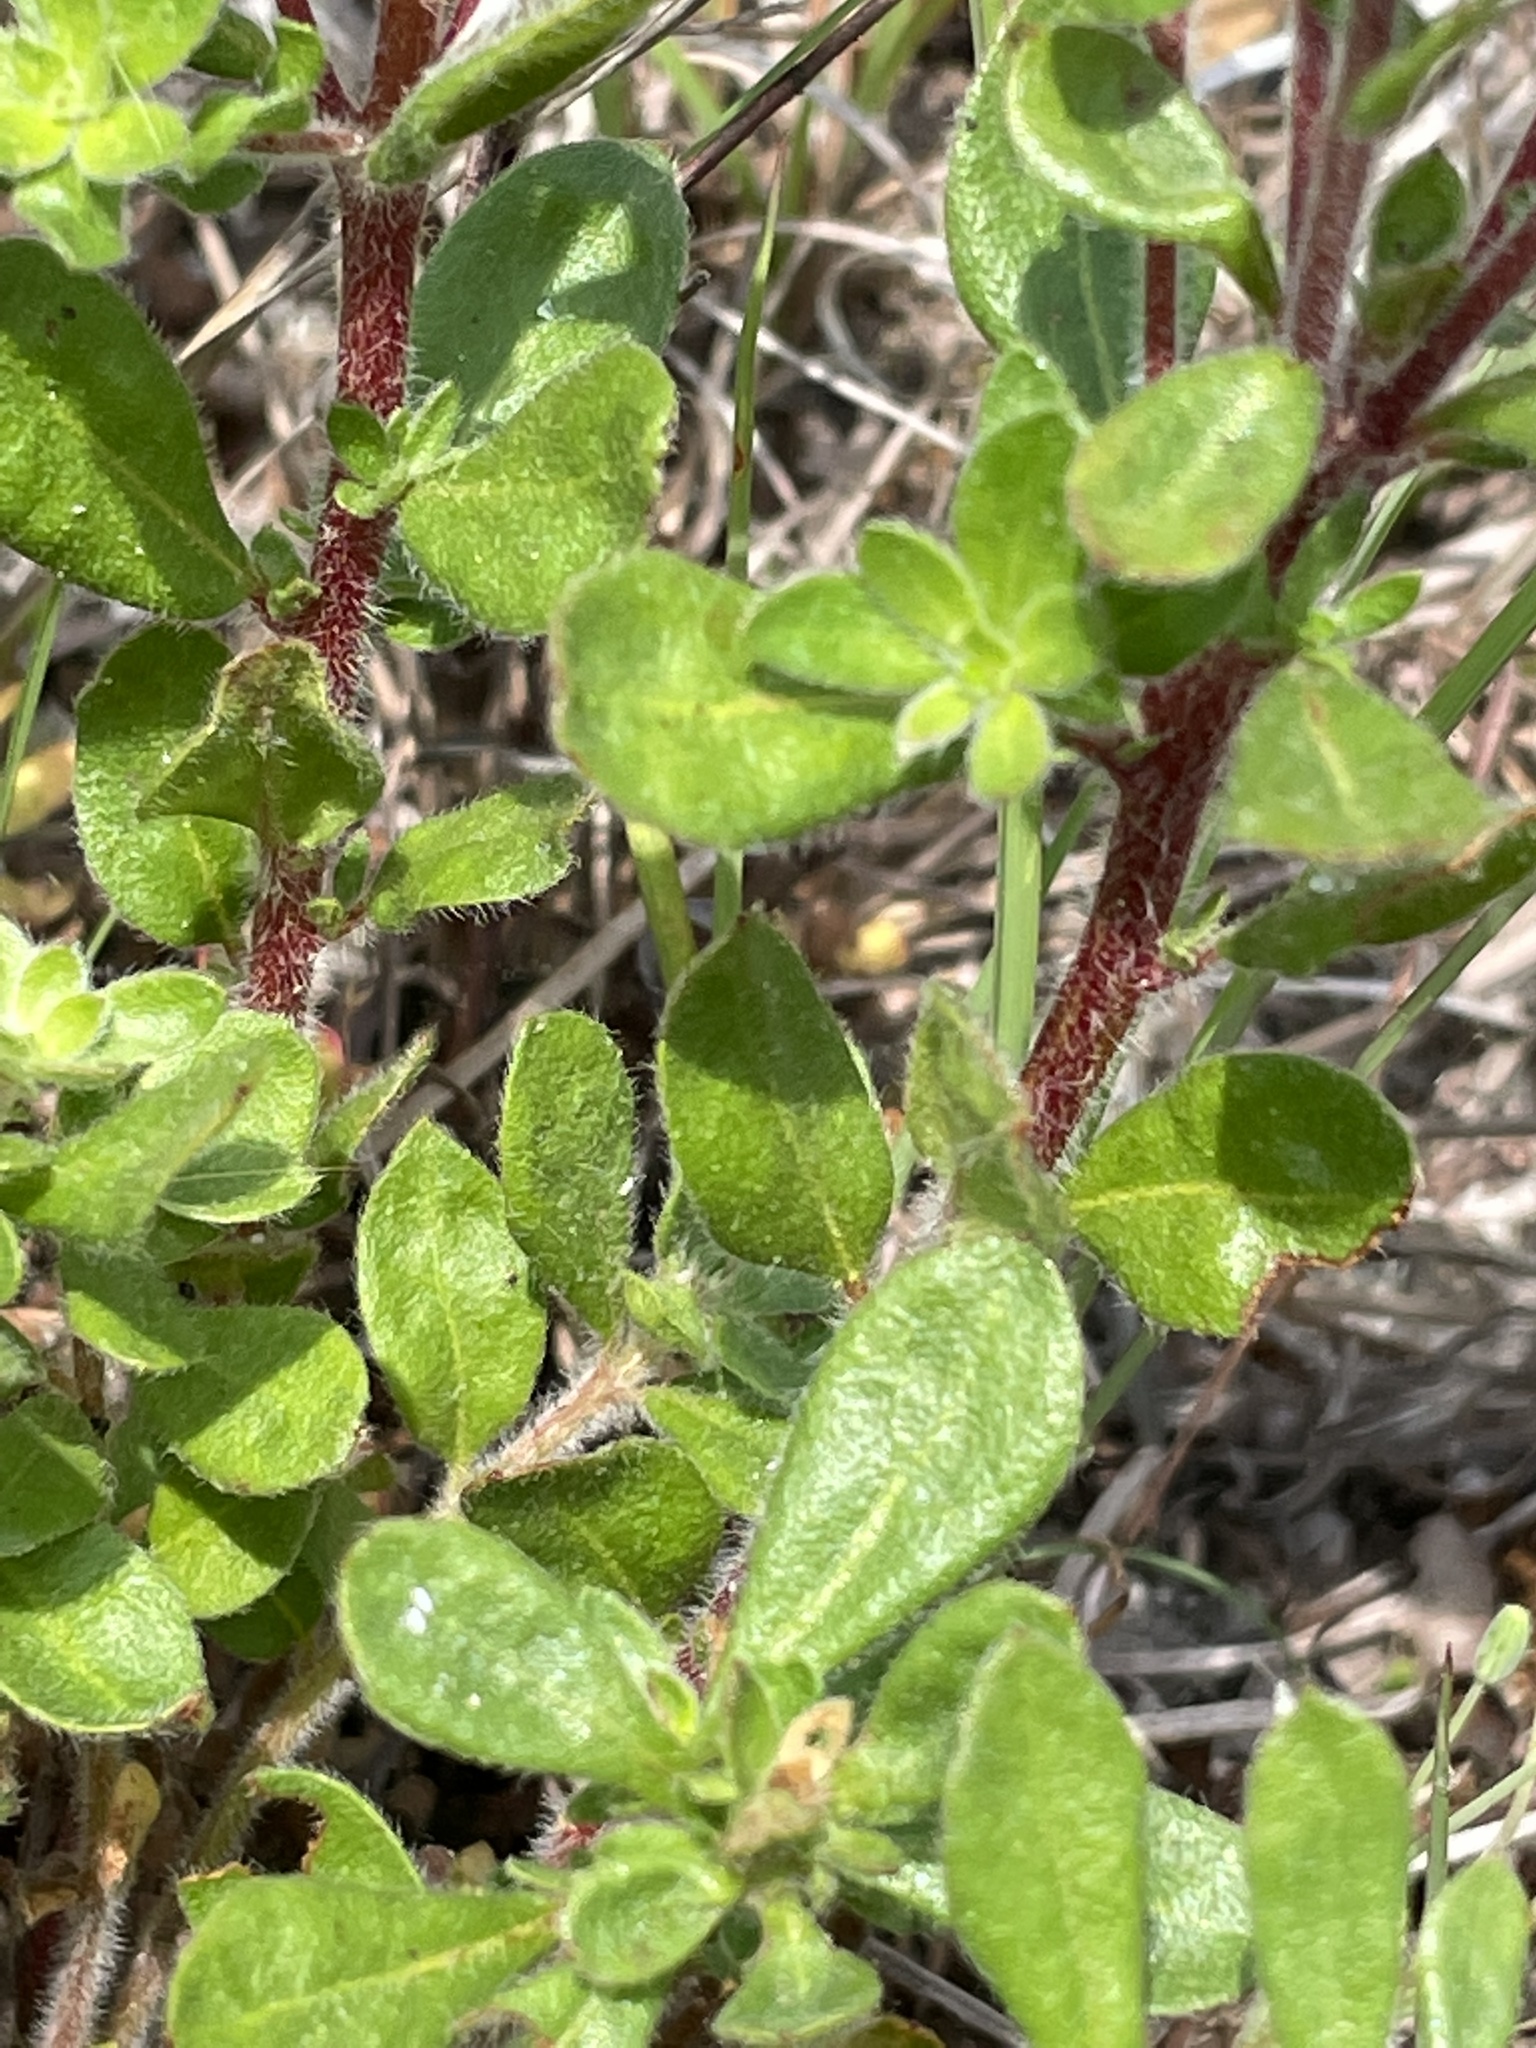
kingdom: Plantae
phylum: Tracheophyta
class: Magnoliopsida
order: Malvales
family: Cistaceae
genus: Lechea
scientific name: Lechea mucronata
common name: Hairy pinweed
